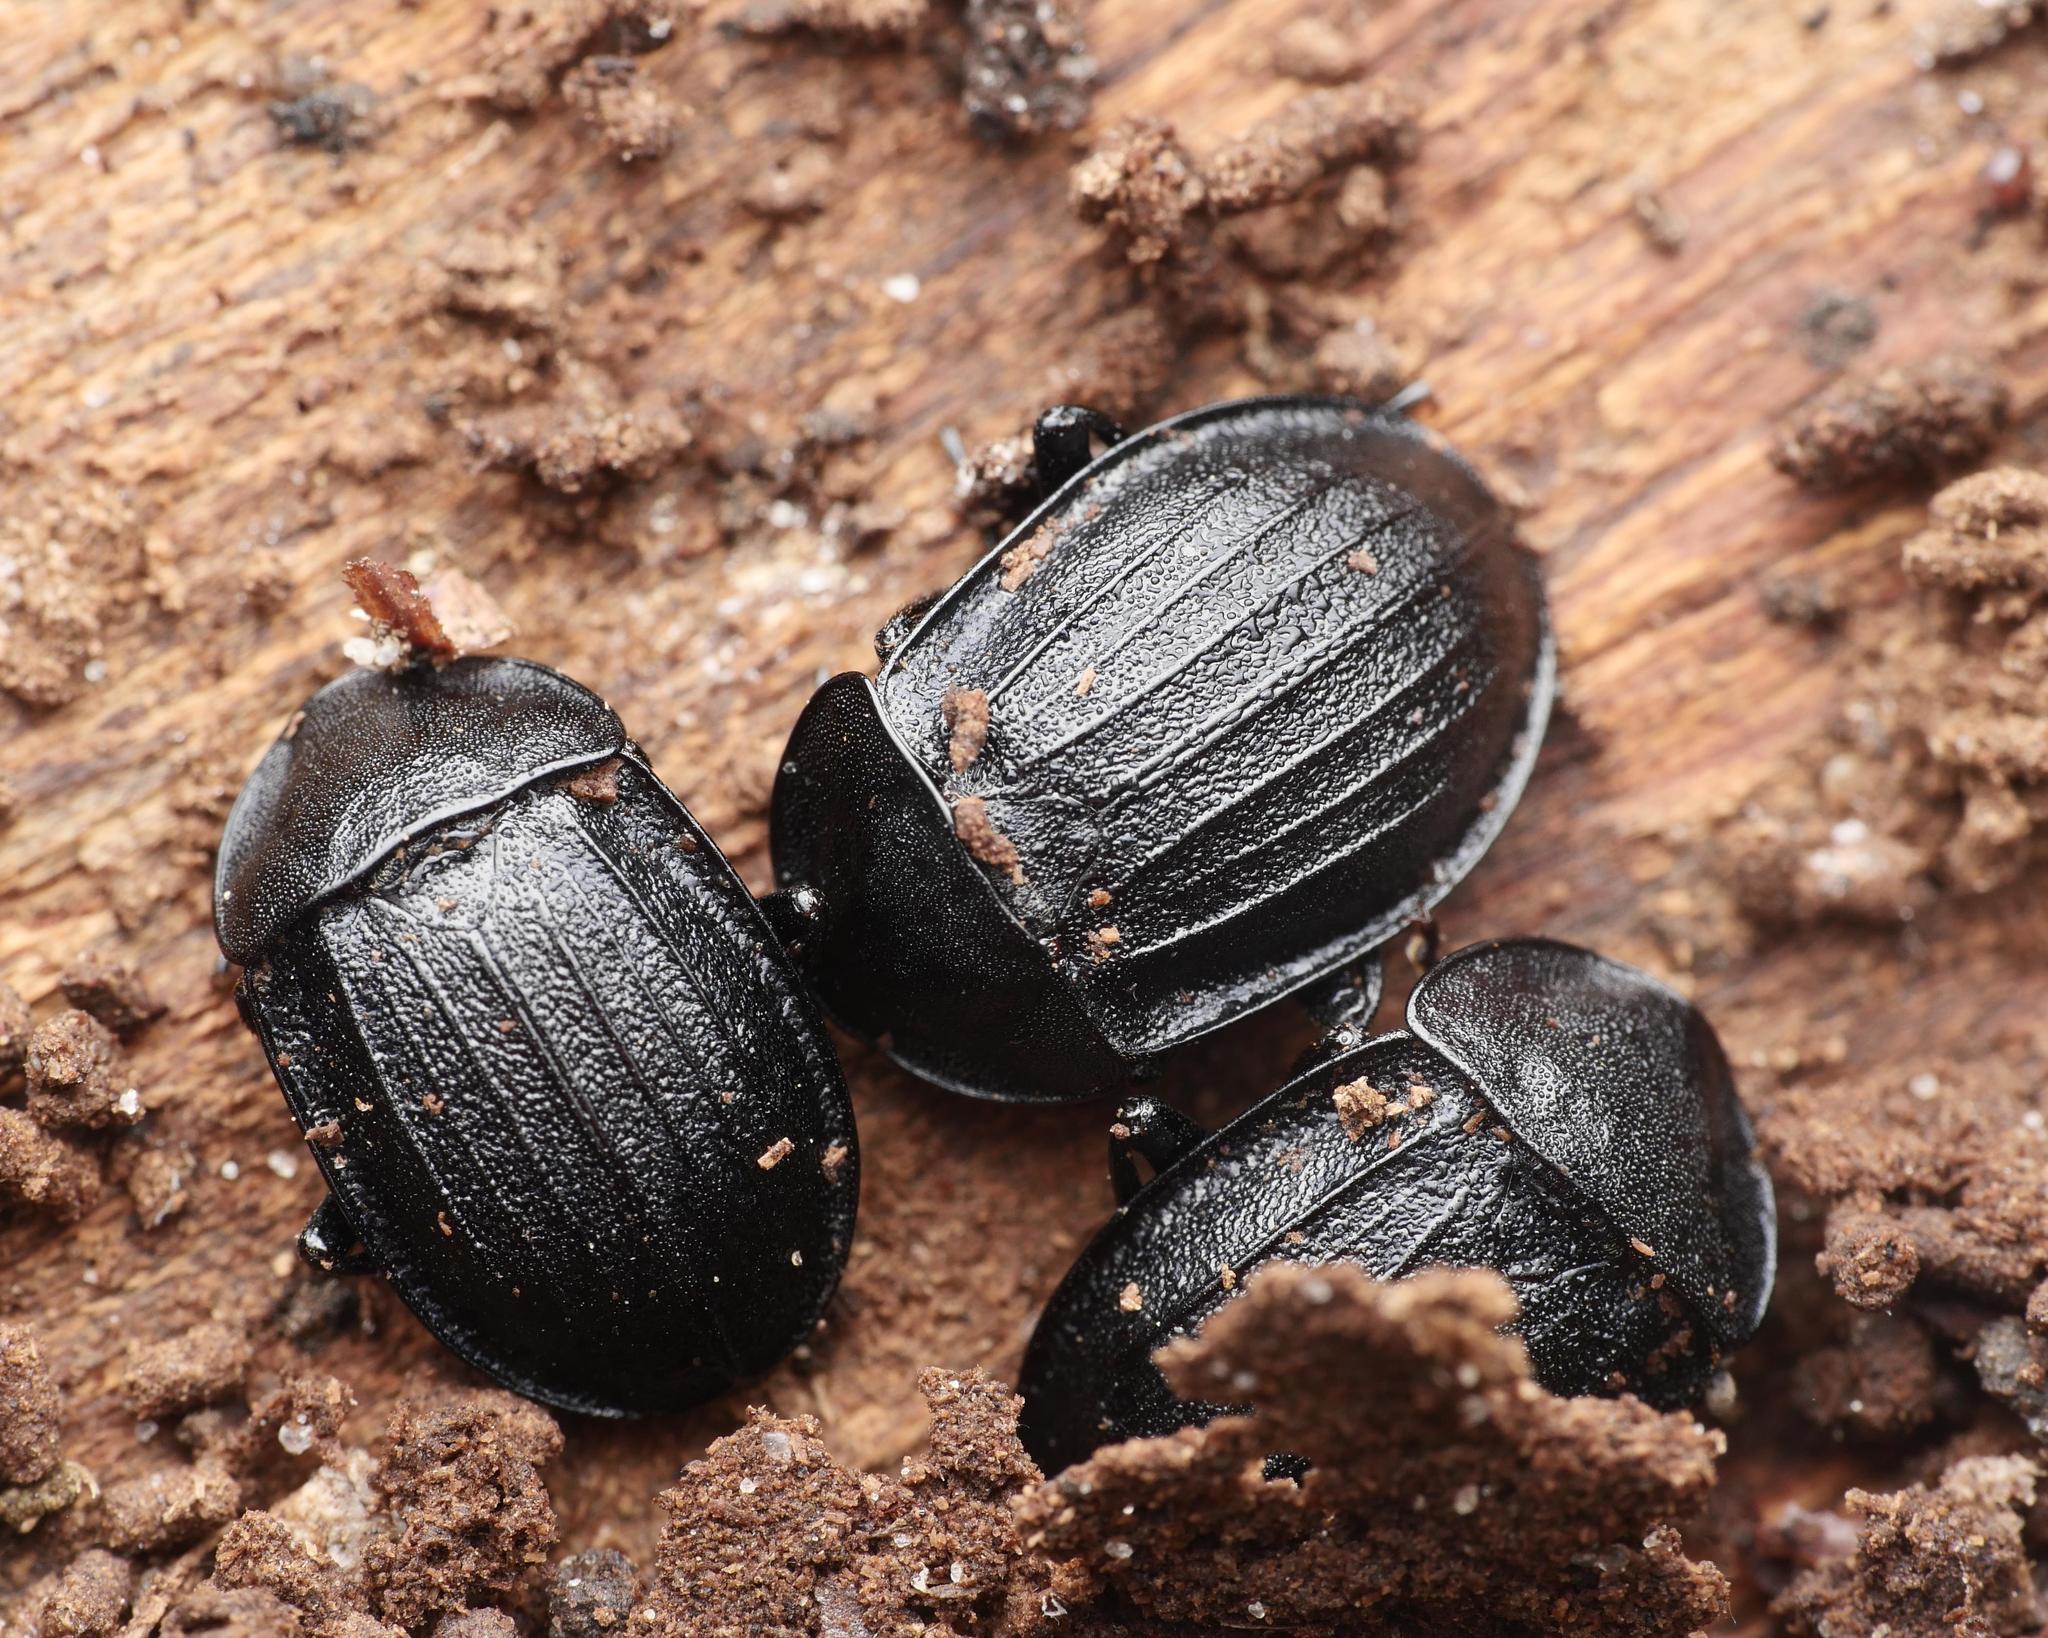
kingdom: Animalia
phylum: Arthropoda
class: Insecta
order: Coleoptera
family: Staphylinidae
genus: Silpha
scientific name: Silpha atrata
